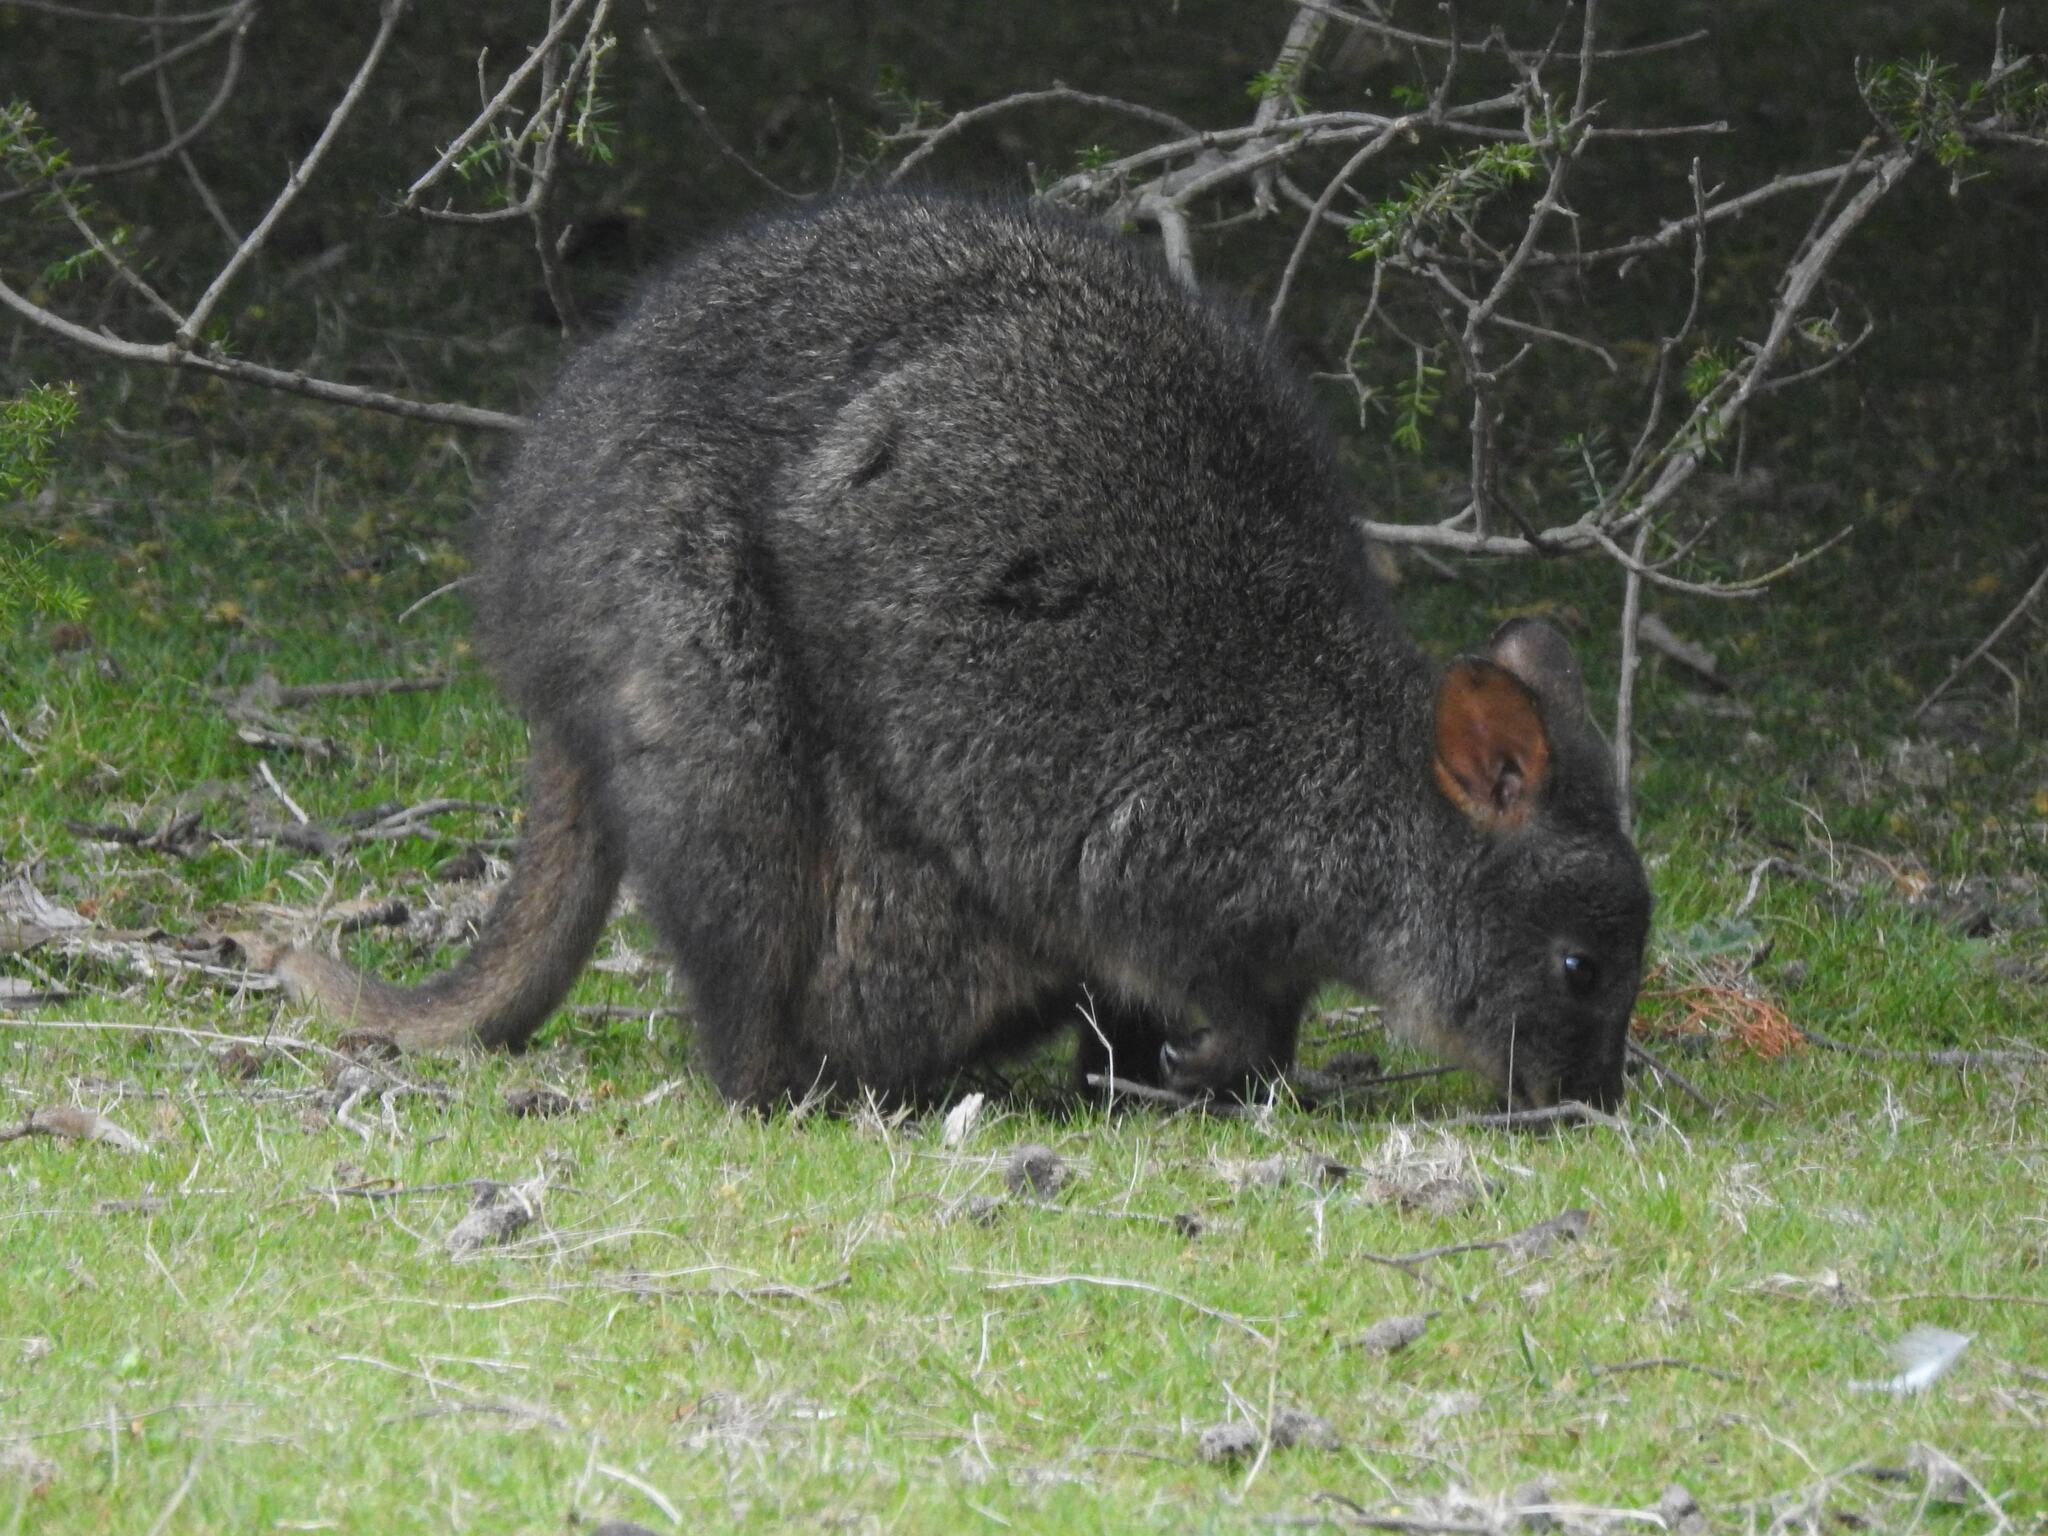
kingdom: Animalia
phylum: Chordata
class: Mammalia
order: Diprotodontia
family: Macropodidae
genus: Thylogale
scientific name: Thylogale billardierii
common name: Tasmanian pademelon
